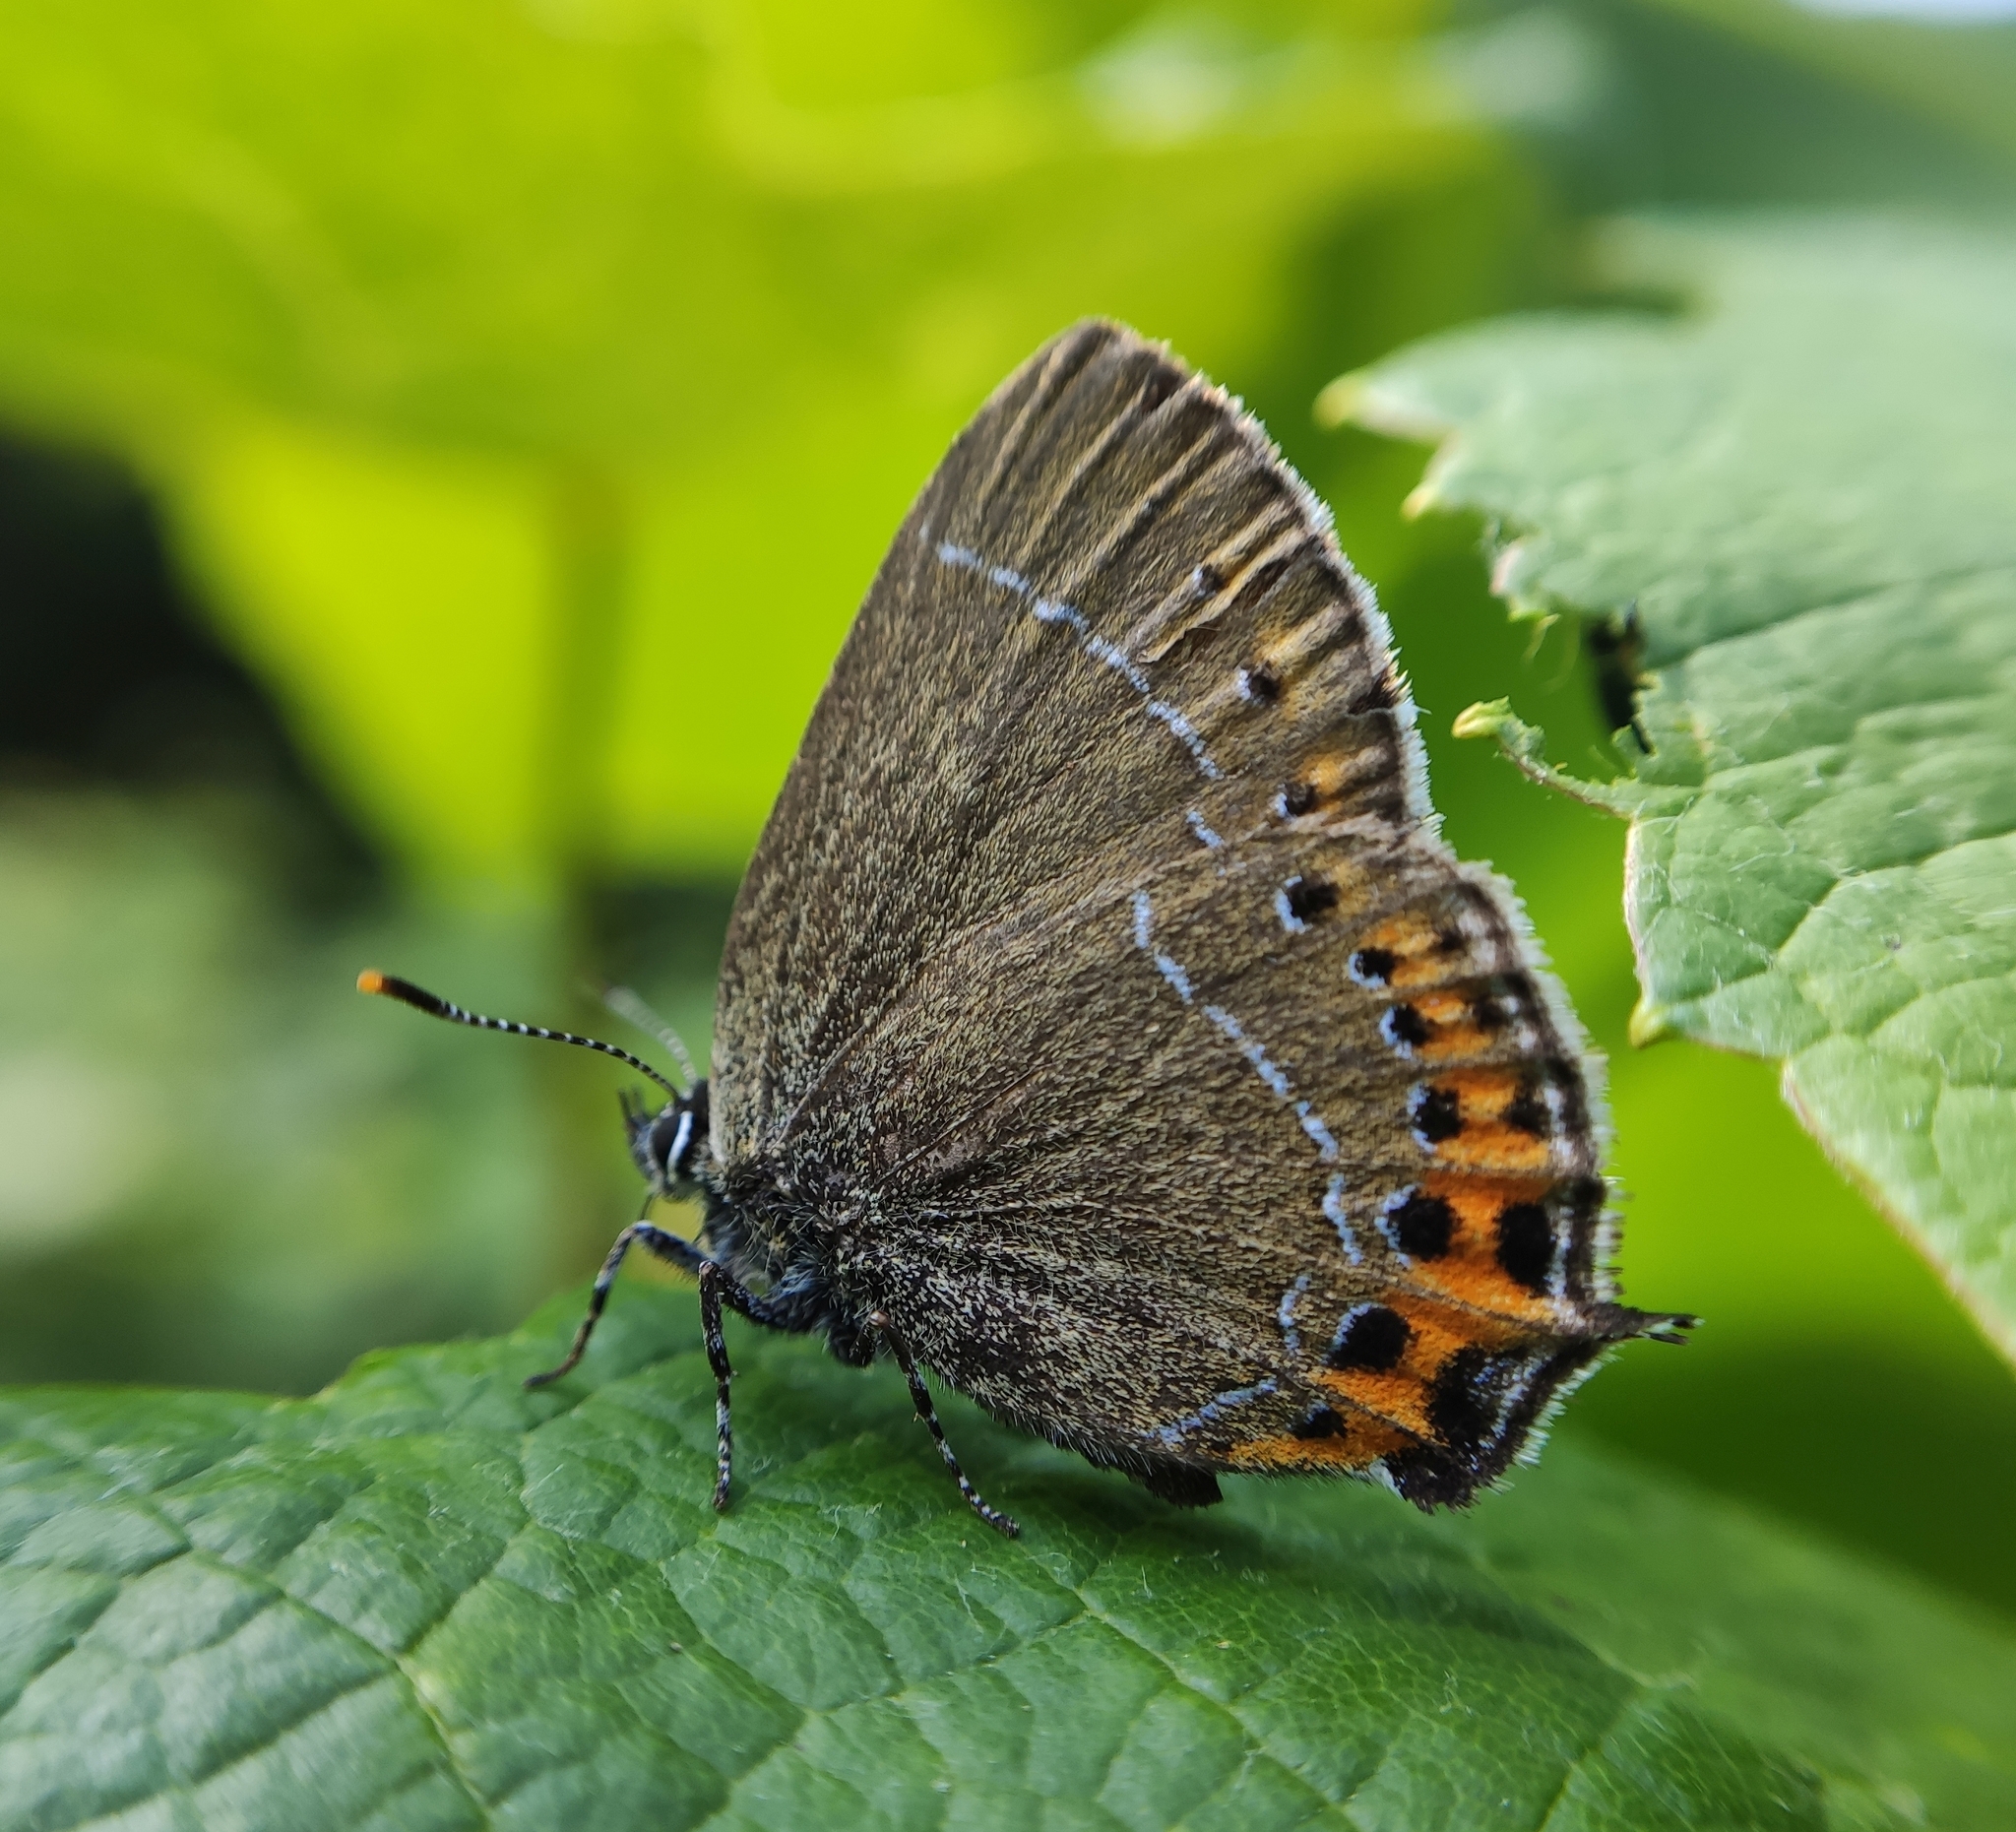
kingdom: Animalia
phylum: Arthropoda
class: Insecta
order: Lepidoptera
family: Lycaenidae
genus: Fixsenia
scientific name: Fixsenia pruni
